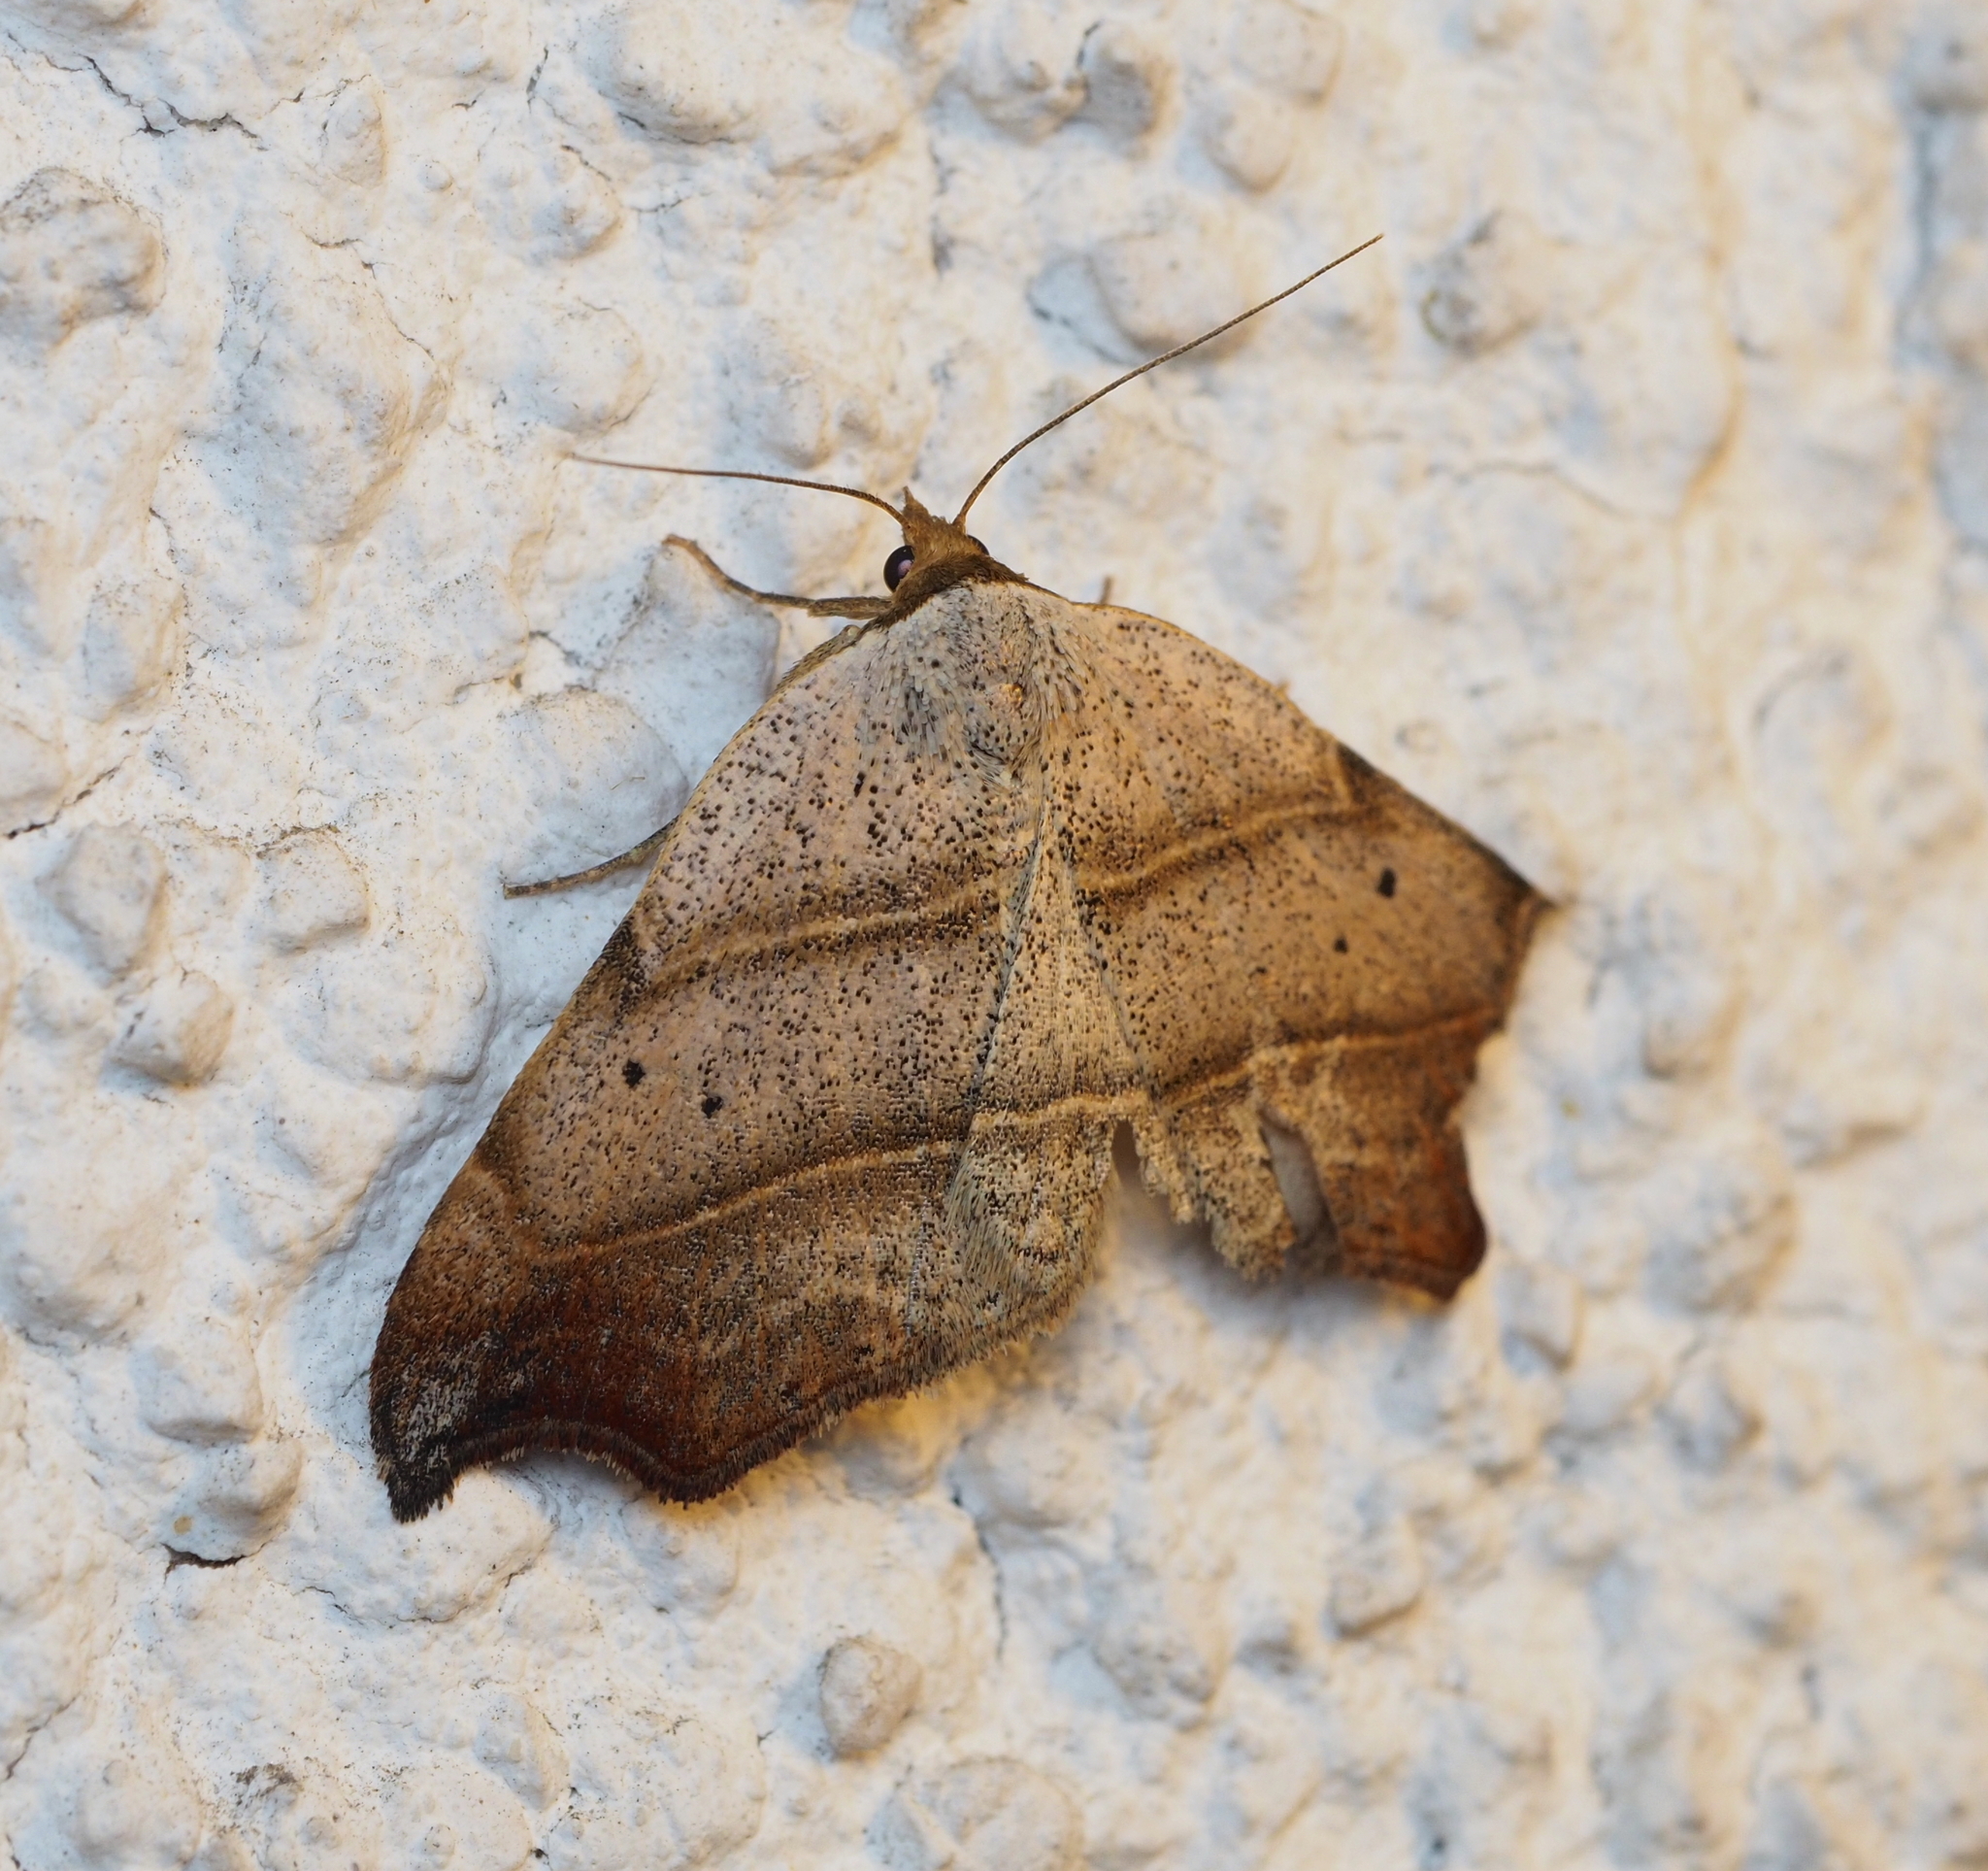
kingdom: Animalia
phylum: Arthropoda
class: Insecta
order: Lepidoptera
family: Erebidae
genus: Laspeyria
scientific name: Laspeyria flexula
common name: Beautiful hook-tip
